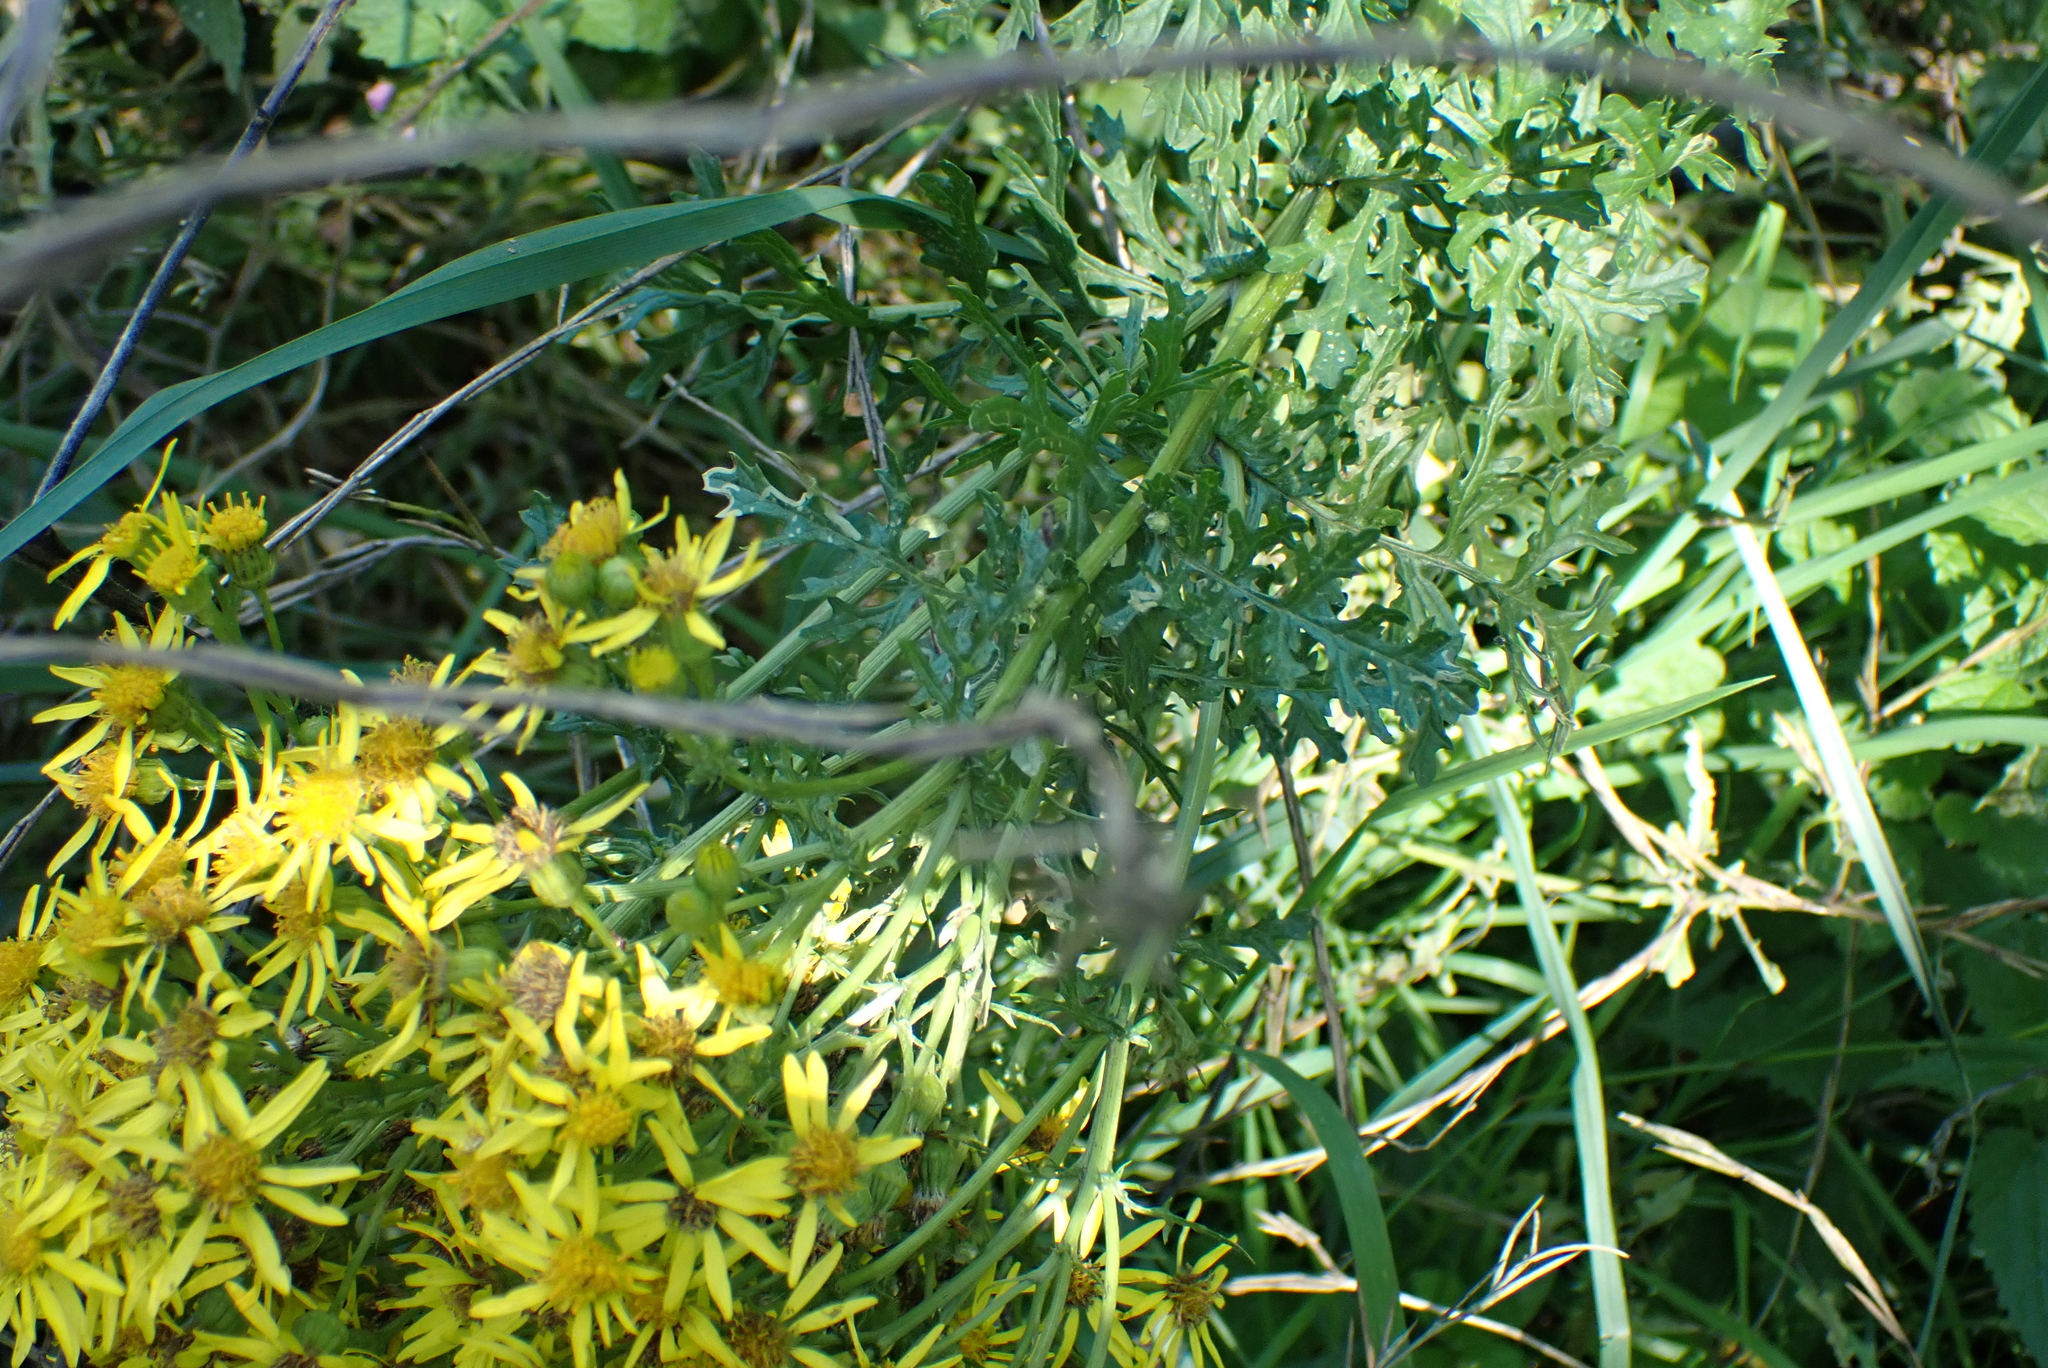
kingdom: Plantae
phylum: Tracheophyta
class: Magnoliopsida
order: Asterales
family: Asteraceae
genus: Jacobaea
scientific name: Jacobaea vulgaris
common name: Stinking willie
